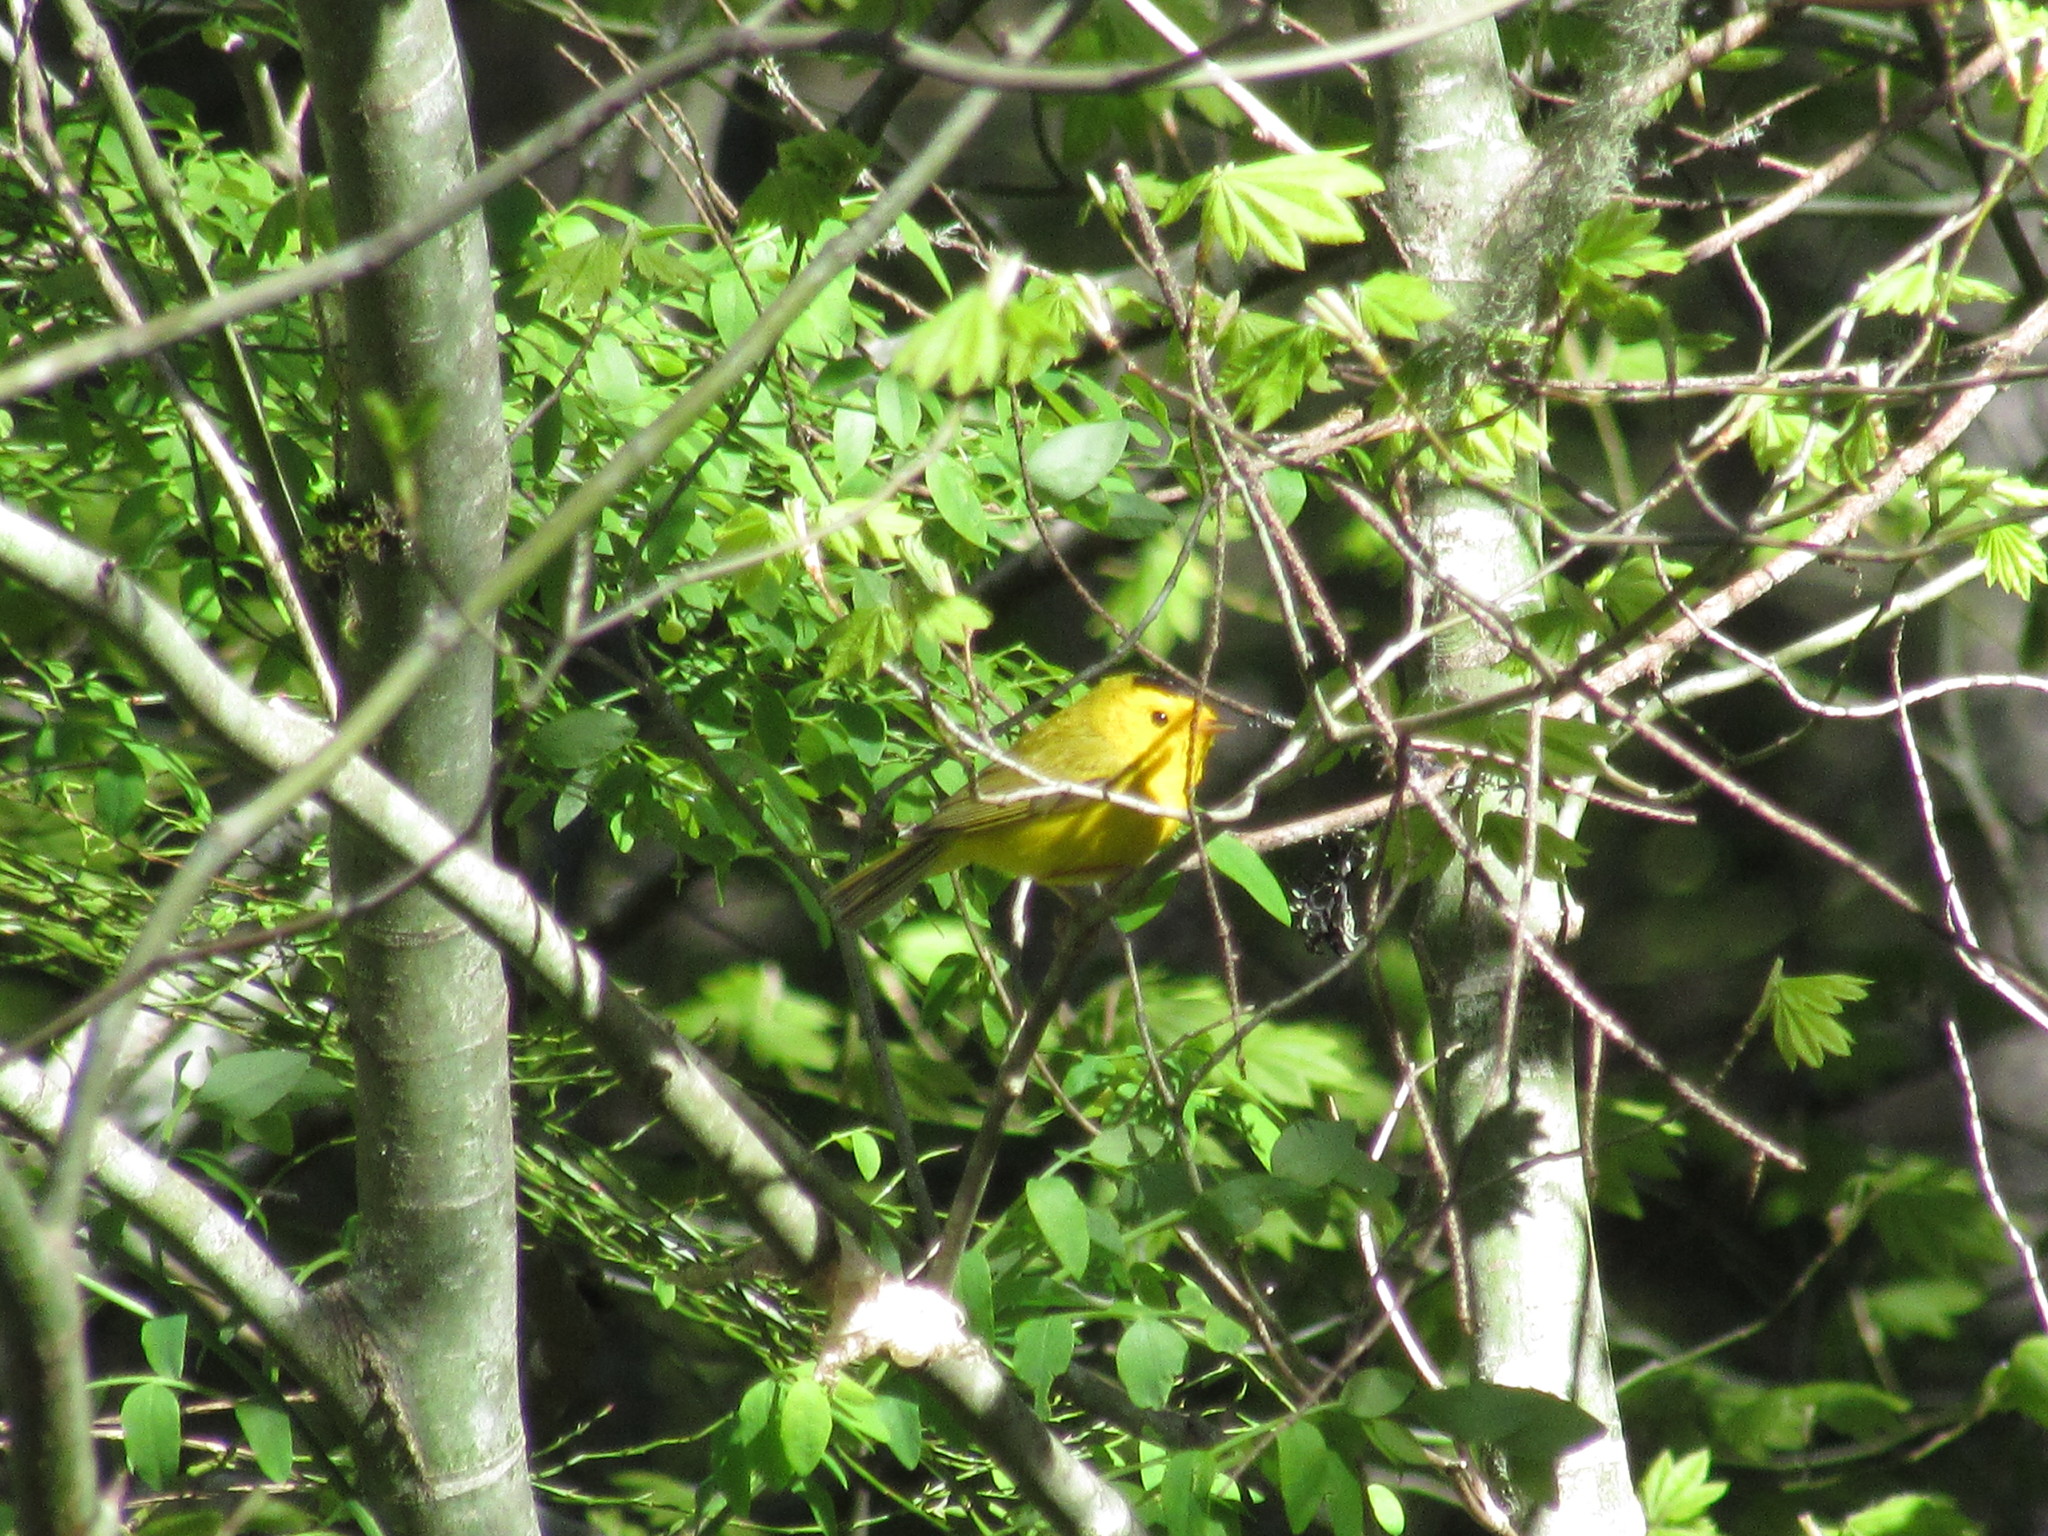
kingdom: Animalia
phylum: Chordata
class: Aves
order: Passeriformes
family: Parulidae
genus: Cardellina
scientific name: Cardellina pusilla
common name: Wilson's warbler
